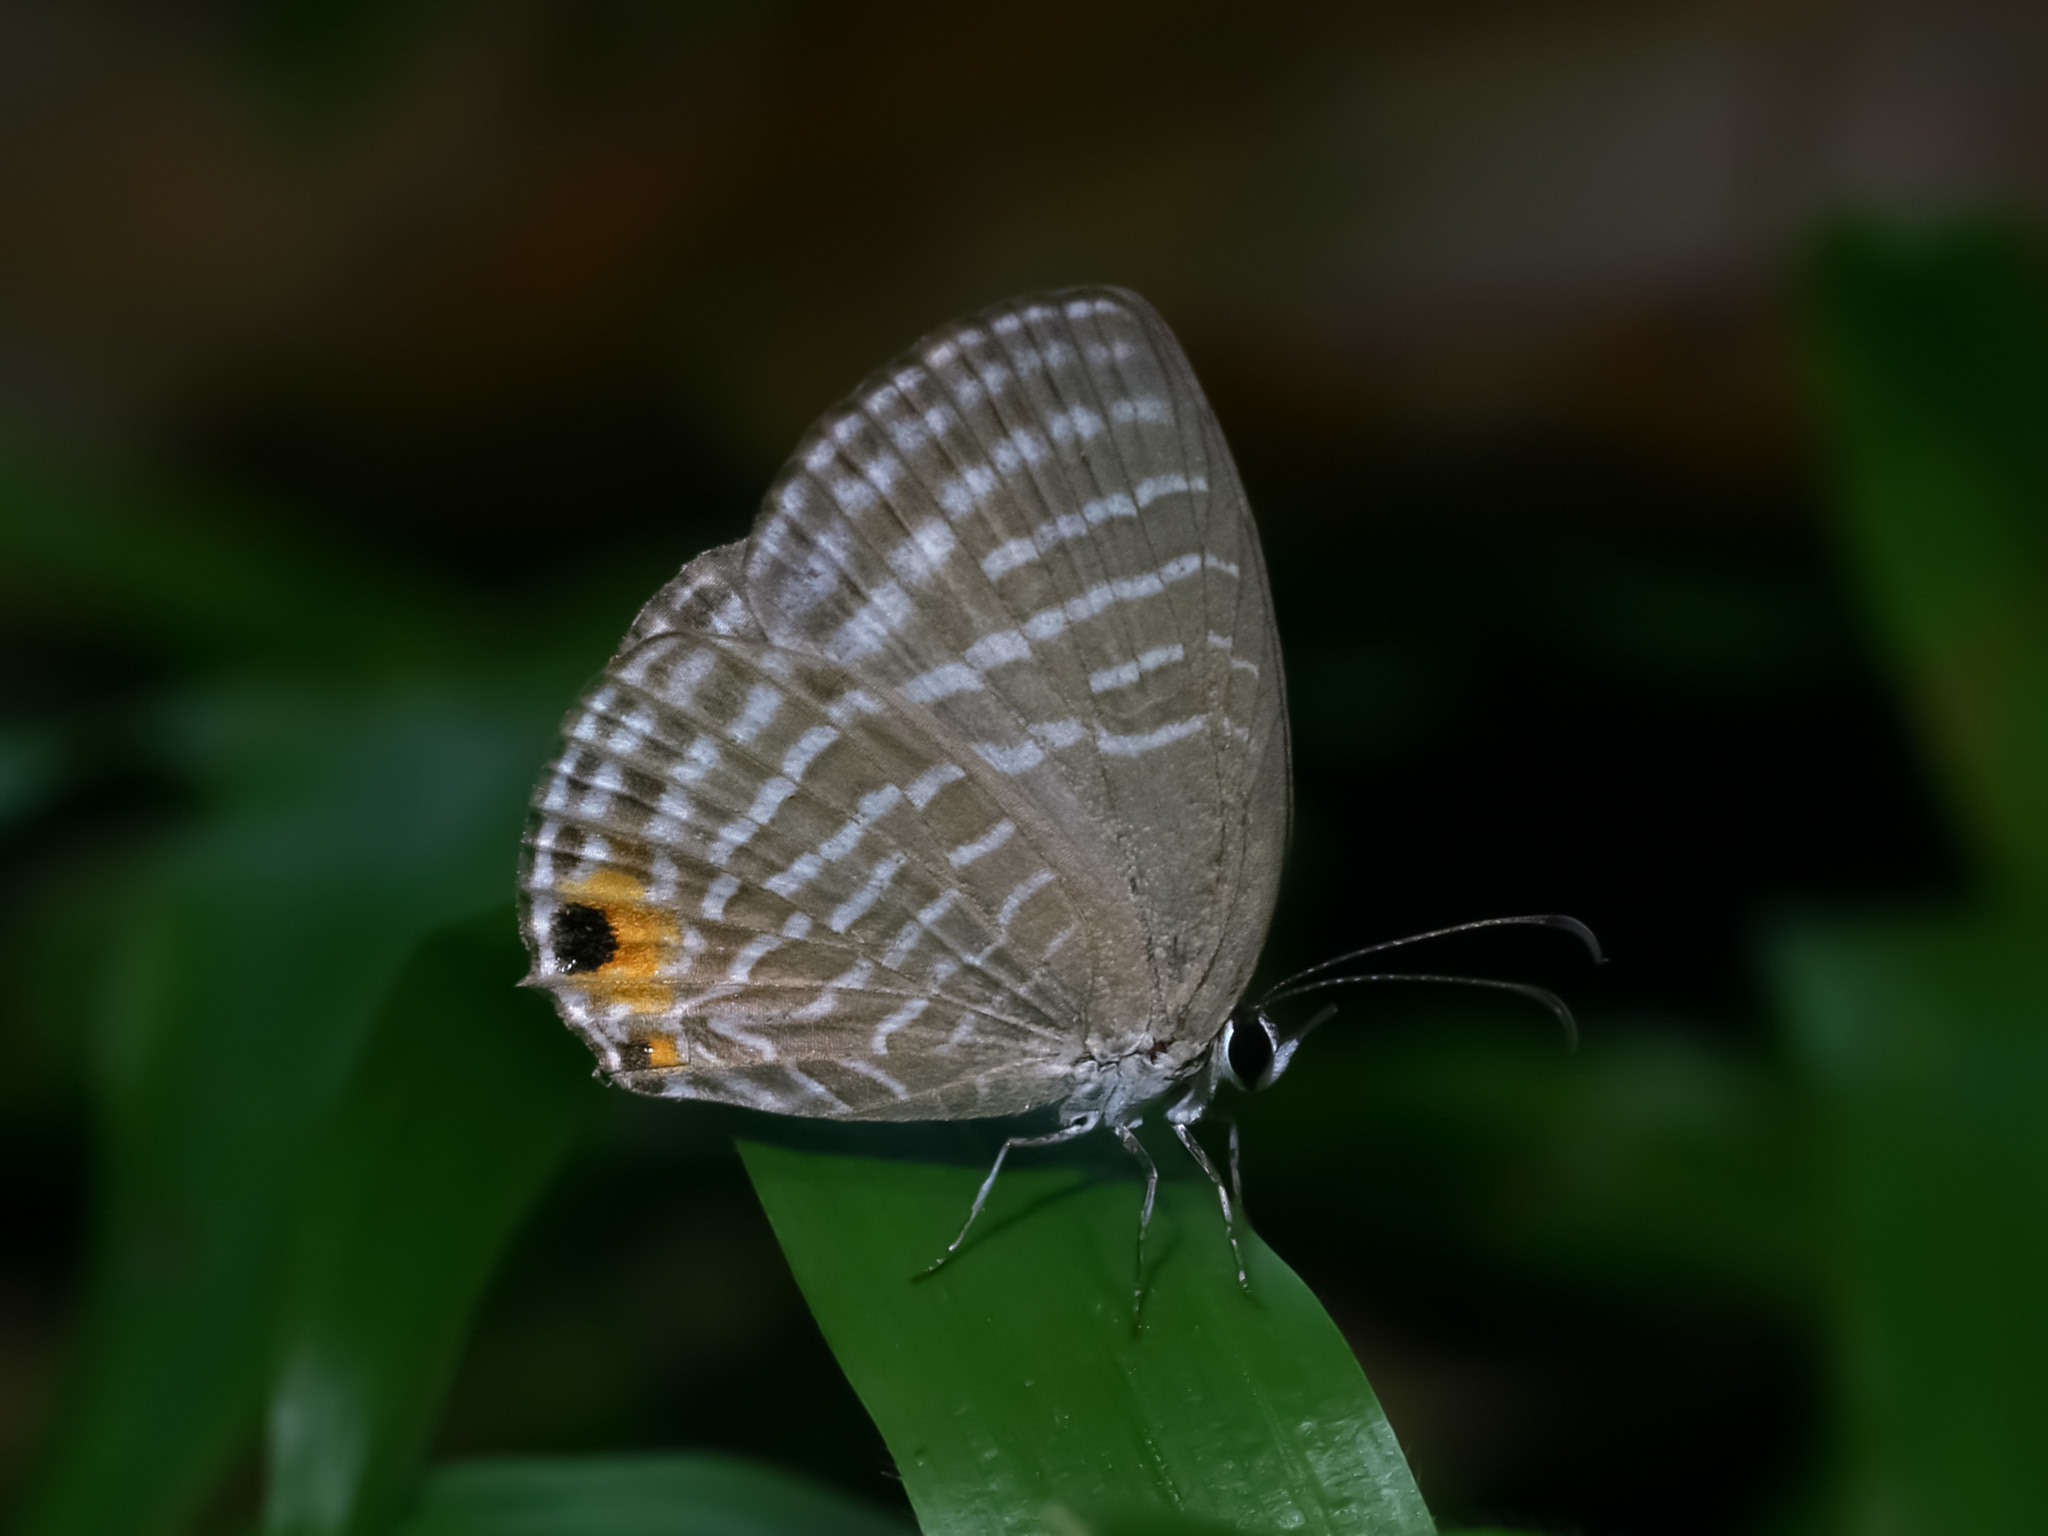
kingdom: Animalia
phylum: Arthropoda
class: Insecta
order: Lepidoptera
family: Lycaenidae
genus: Jamides
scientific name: Jamides celeno
